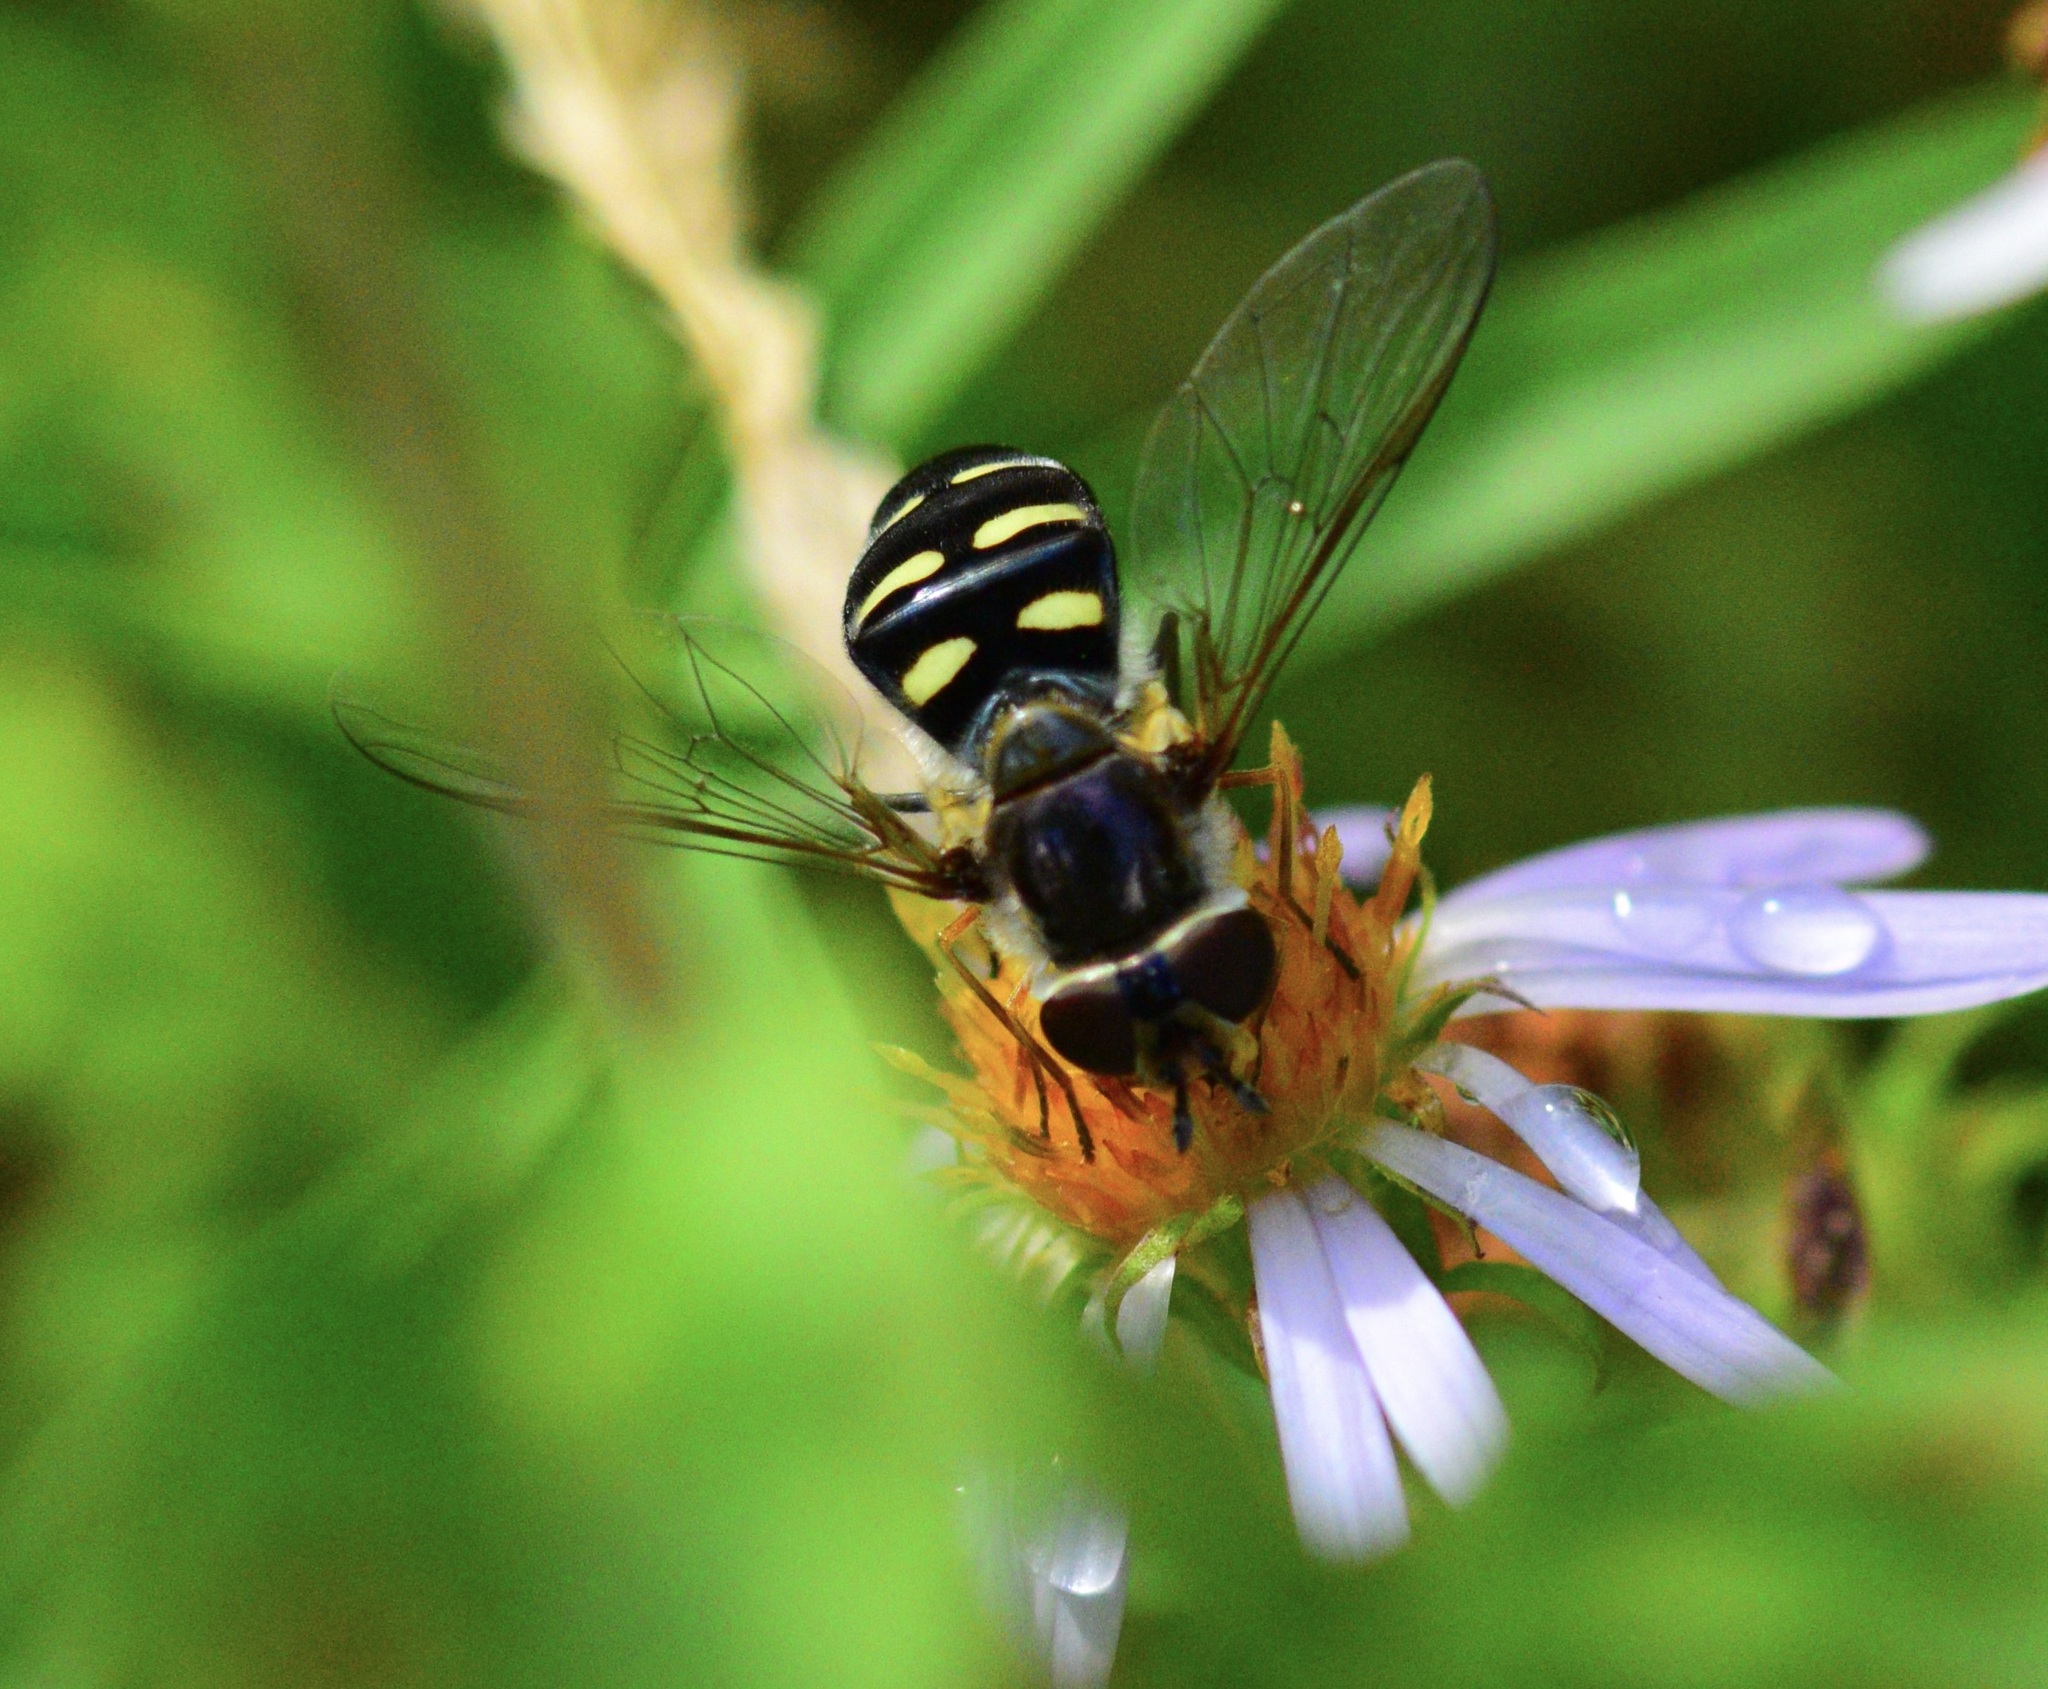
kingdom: Animalia
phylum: Arthropoda
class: Insecta
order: Diptera
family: Syrphidae
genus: Eupeodes
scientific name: Eupeodes perplexus
